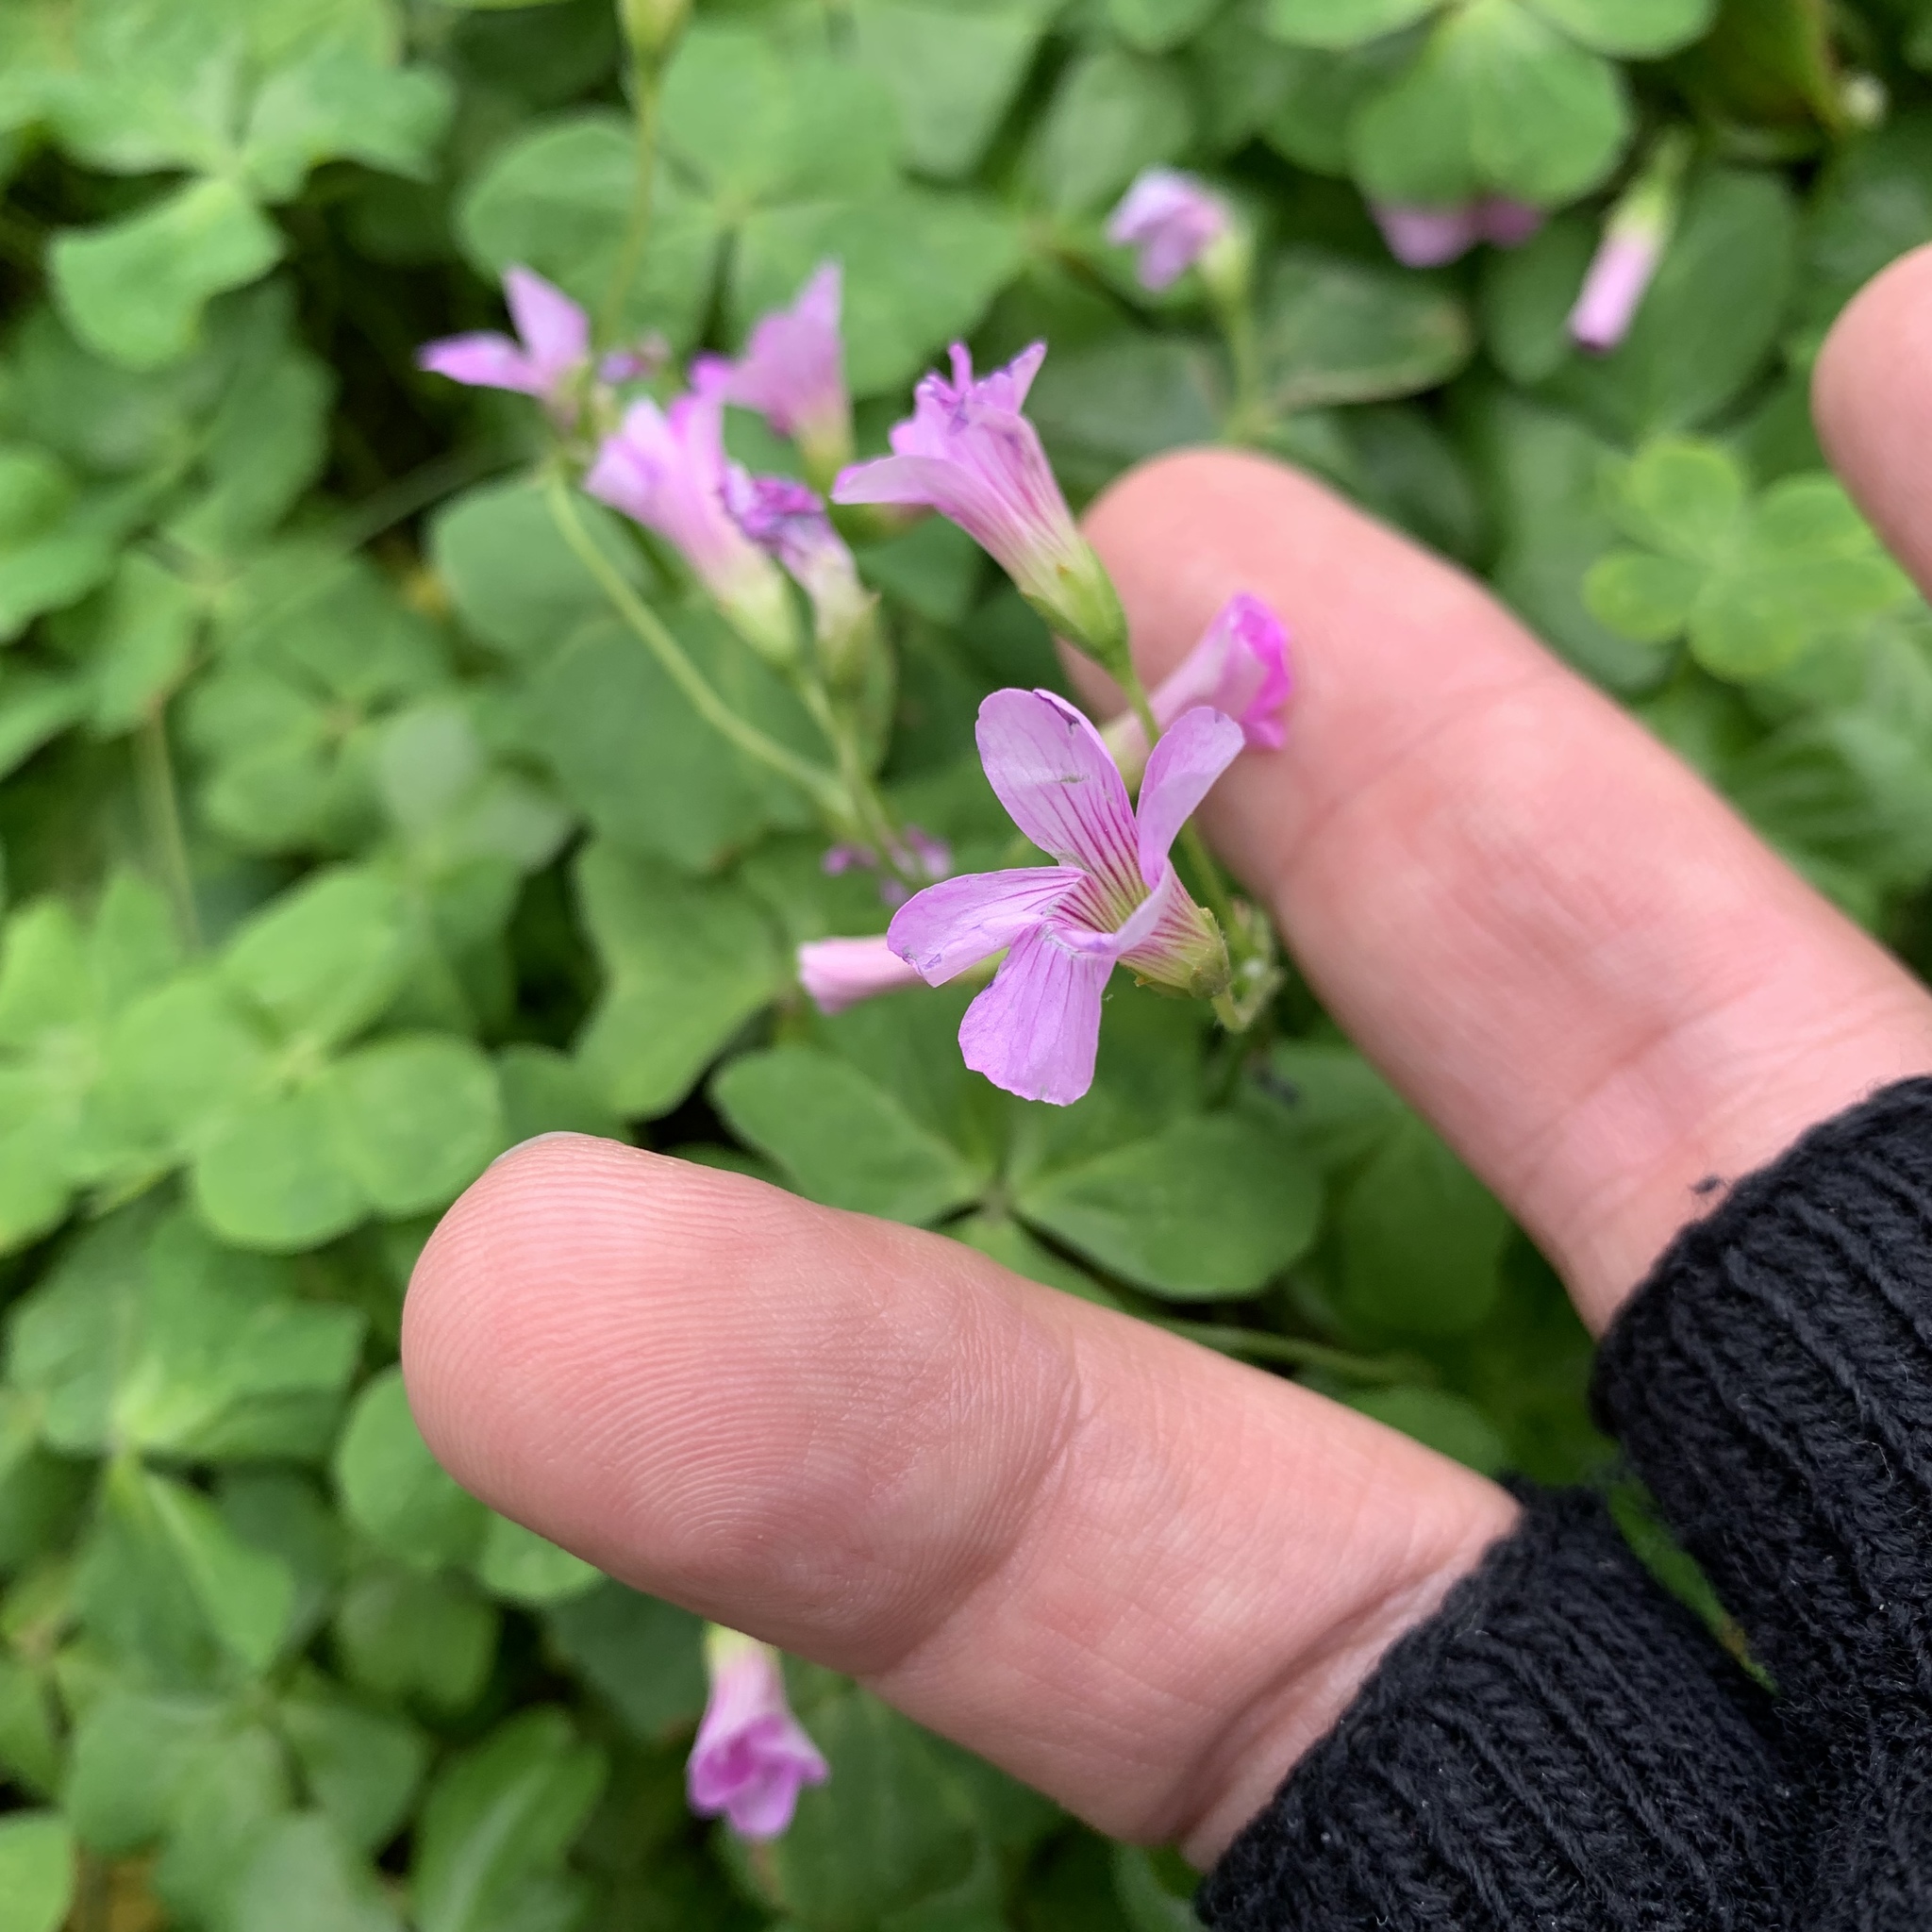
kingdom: Plantae
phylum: Tracheophyta
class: Magnoliopsida
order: Oxalidales
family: Oxalidaceae
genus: Oxalis
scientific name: Oxalis debilis
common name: Large-flowered pink-sorrel
